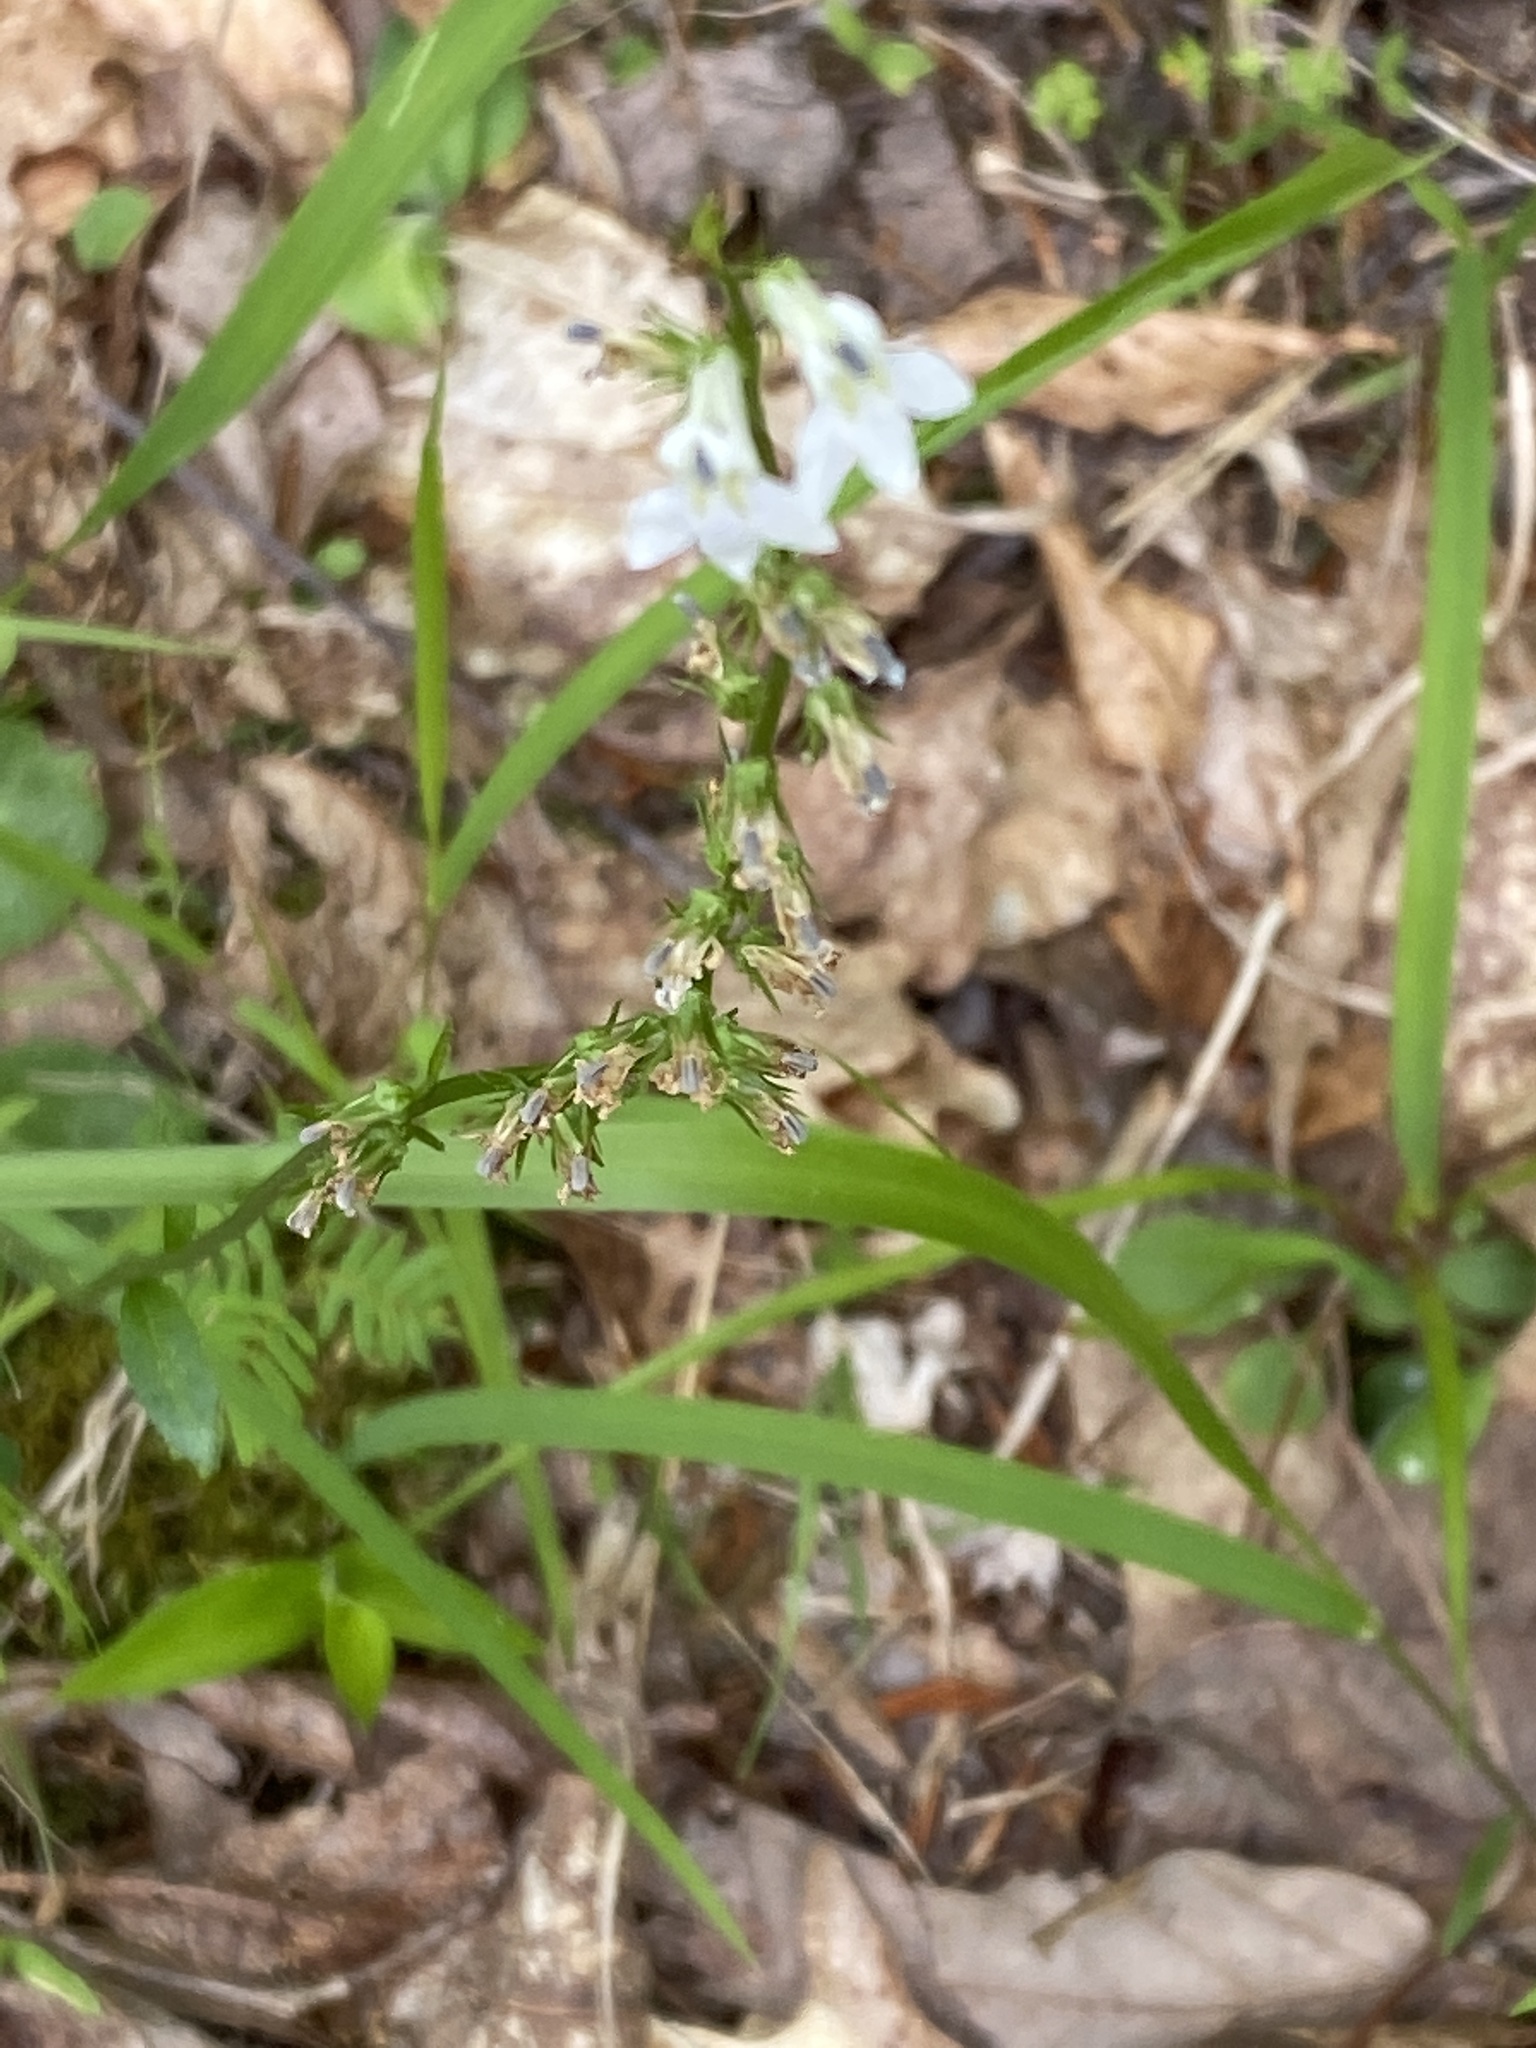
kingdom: Plantae
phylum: Tracheophyta
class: Magnoliopsida
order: Asterales
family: Campanulaceae
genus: Lobelia
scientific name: Lobelia spicata
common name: Pale-spike lobelia
